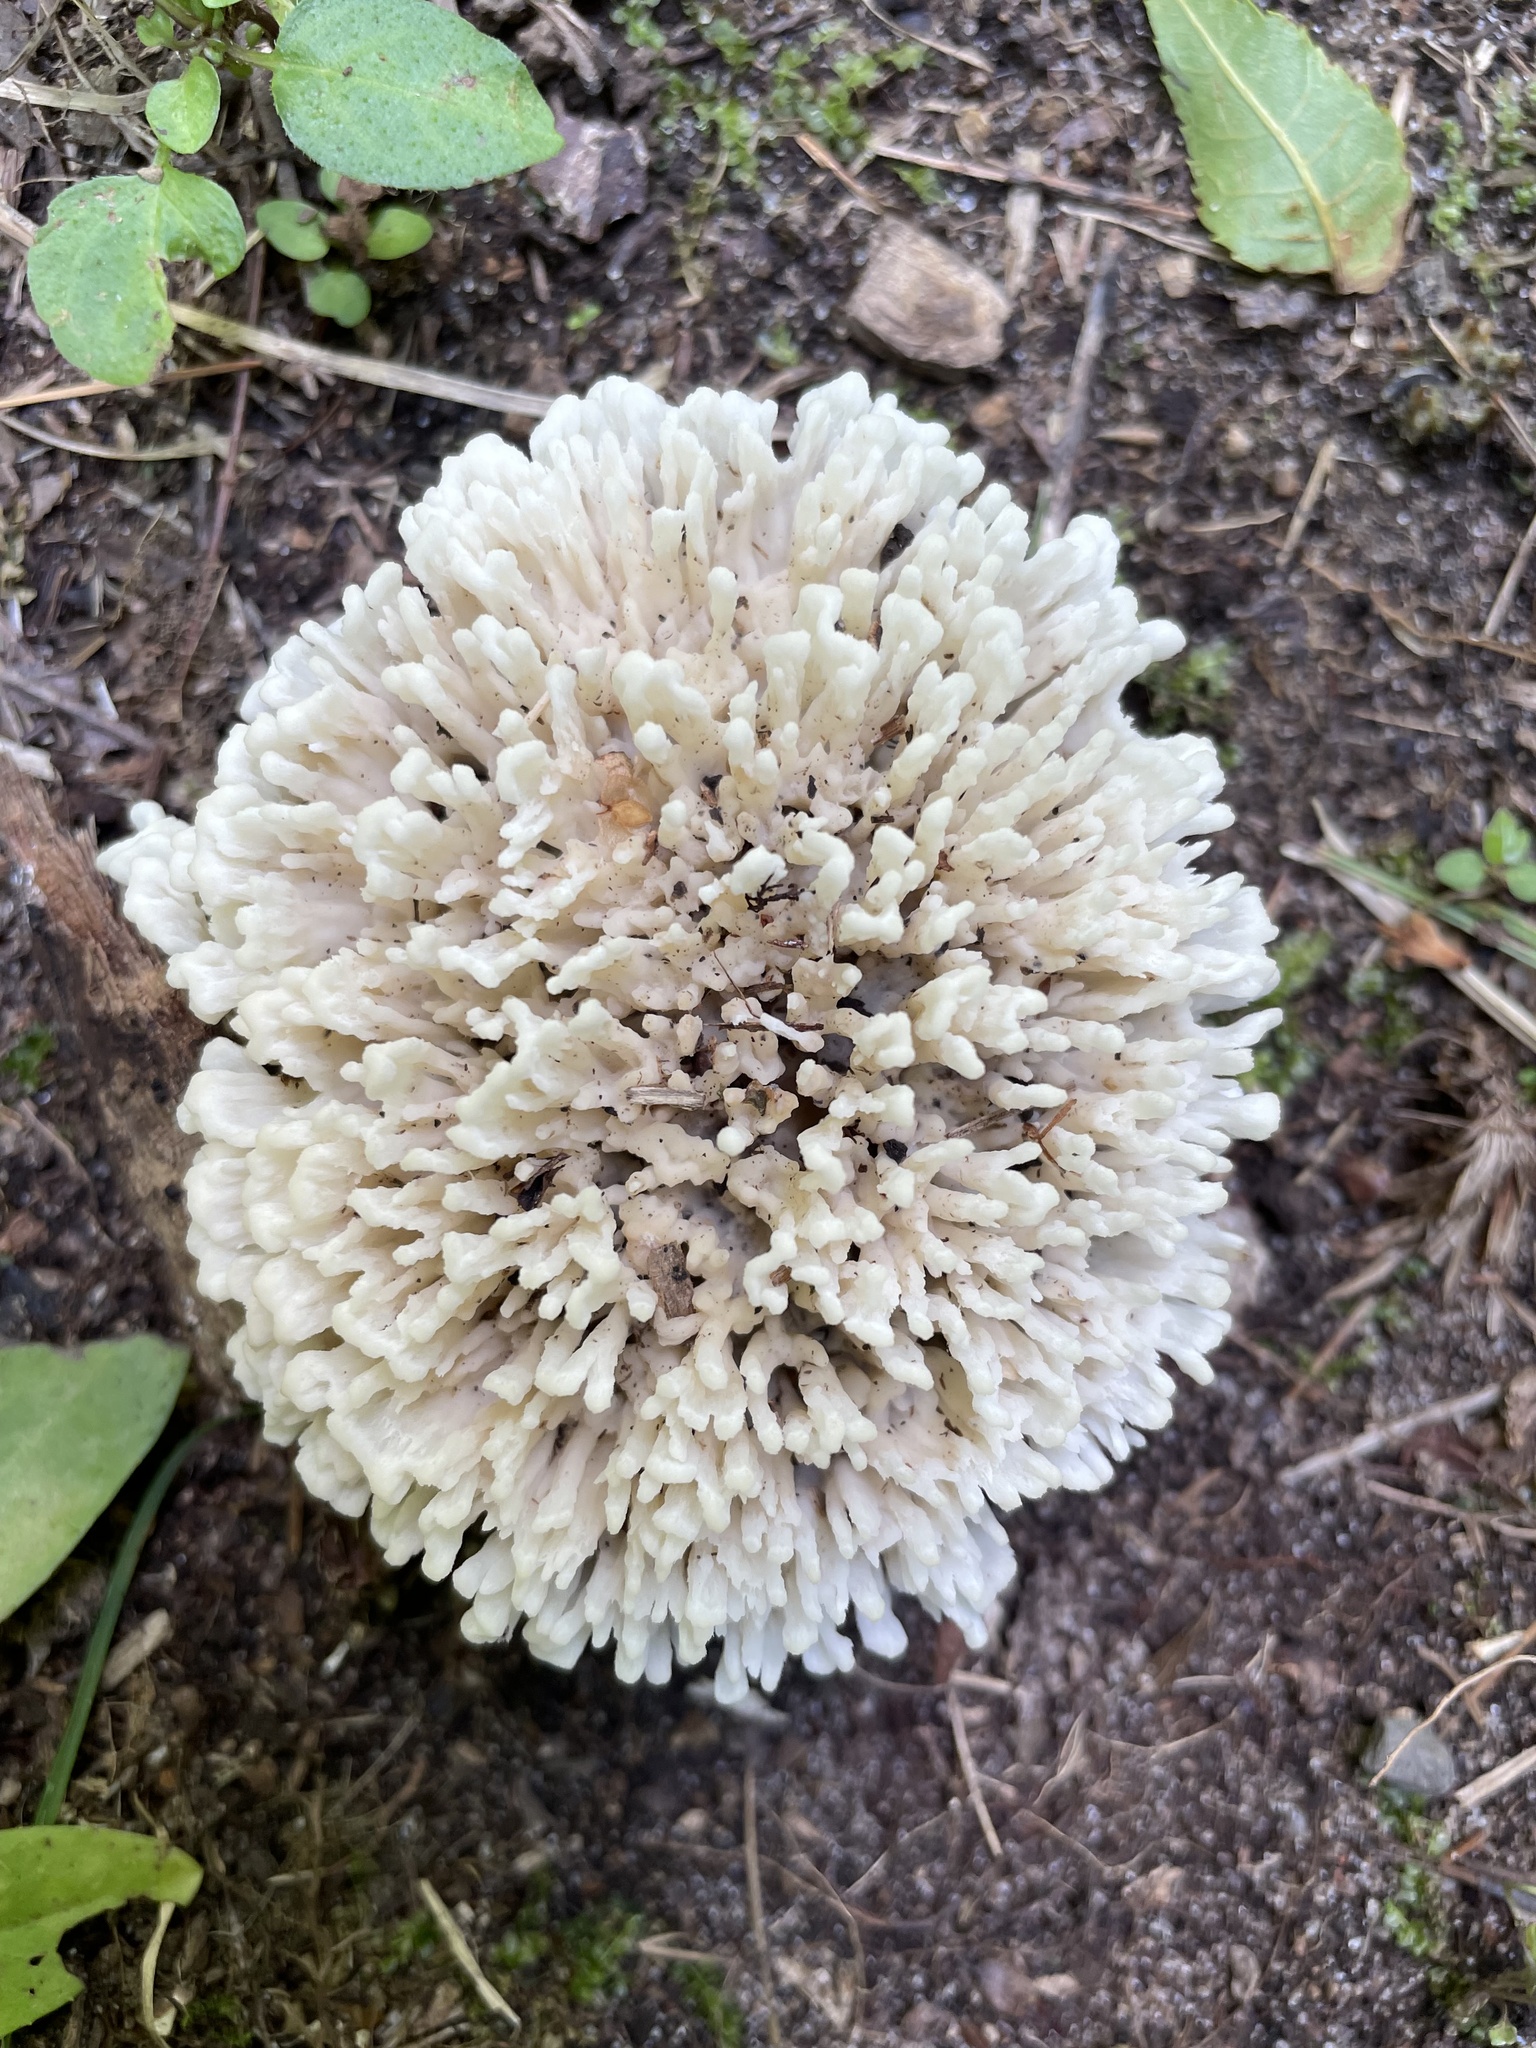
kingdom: Fungi
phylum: Basidiomycota
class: Agaricomycetes
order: Sebacinales
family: Sebacinaceae
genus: Sebacina
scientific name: Sebacina schweinitzii
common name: Jellied false coral fungus
